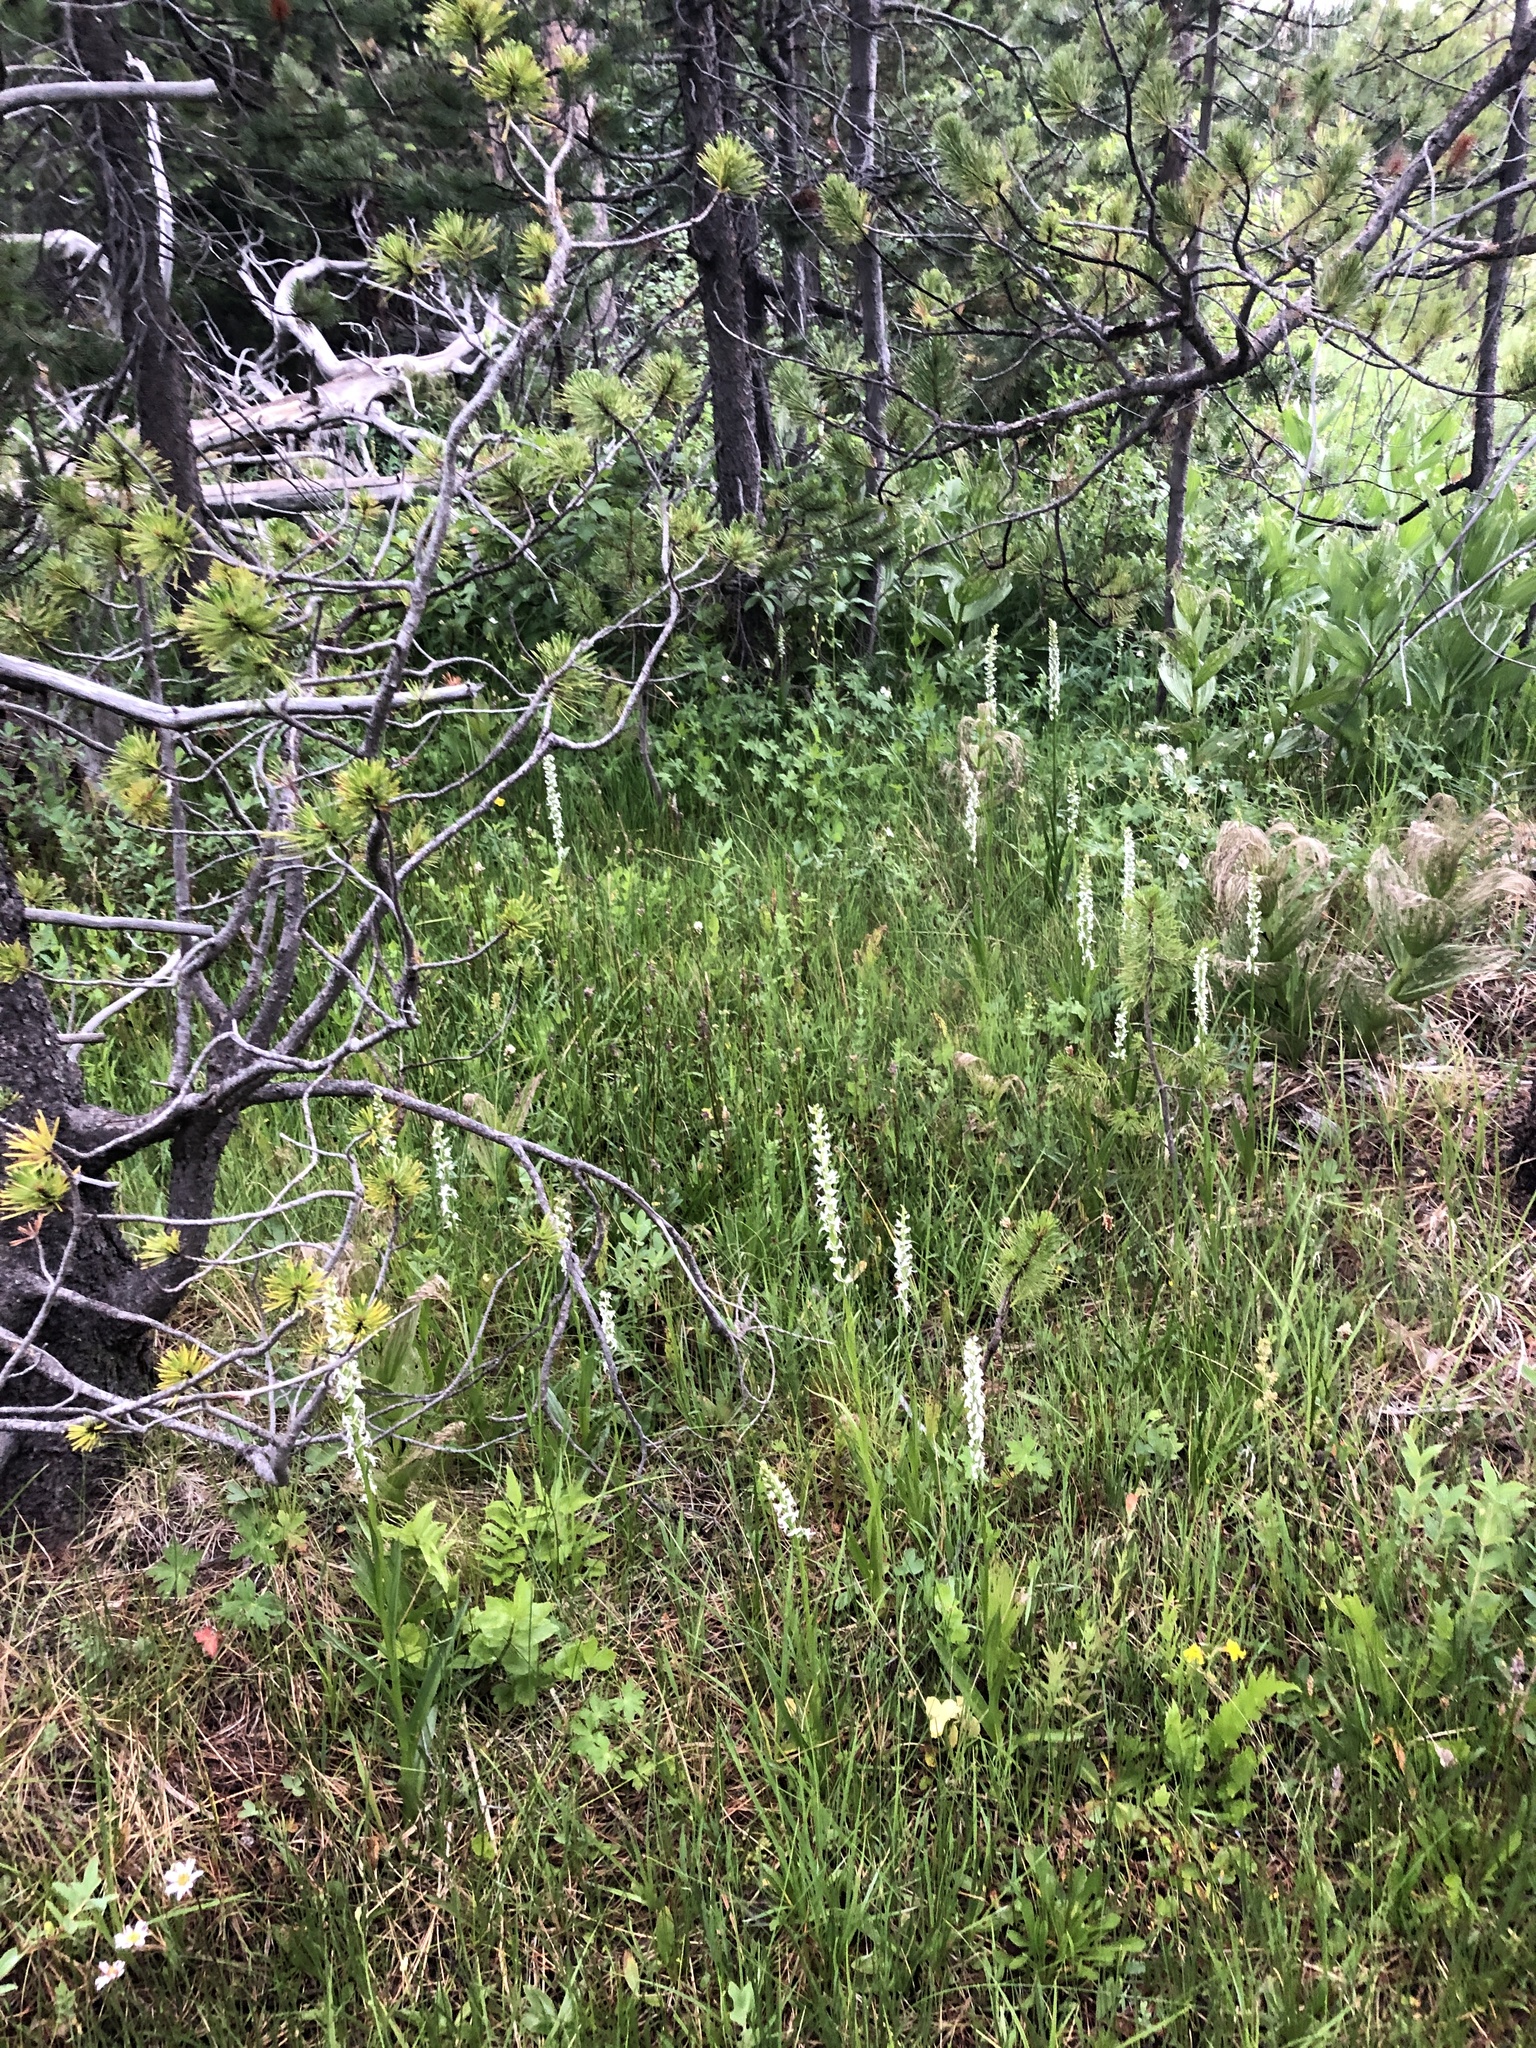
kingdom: Plantae
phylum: Tracheophyta
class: Liliopsida
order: Asparagales
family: Orchidaceae
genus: Platanthera
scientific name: Platanthera dilatata
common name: Bog candles
